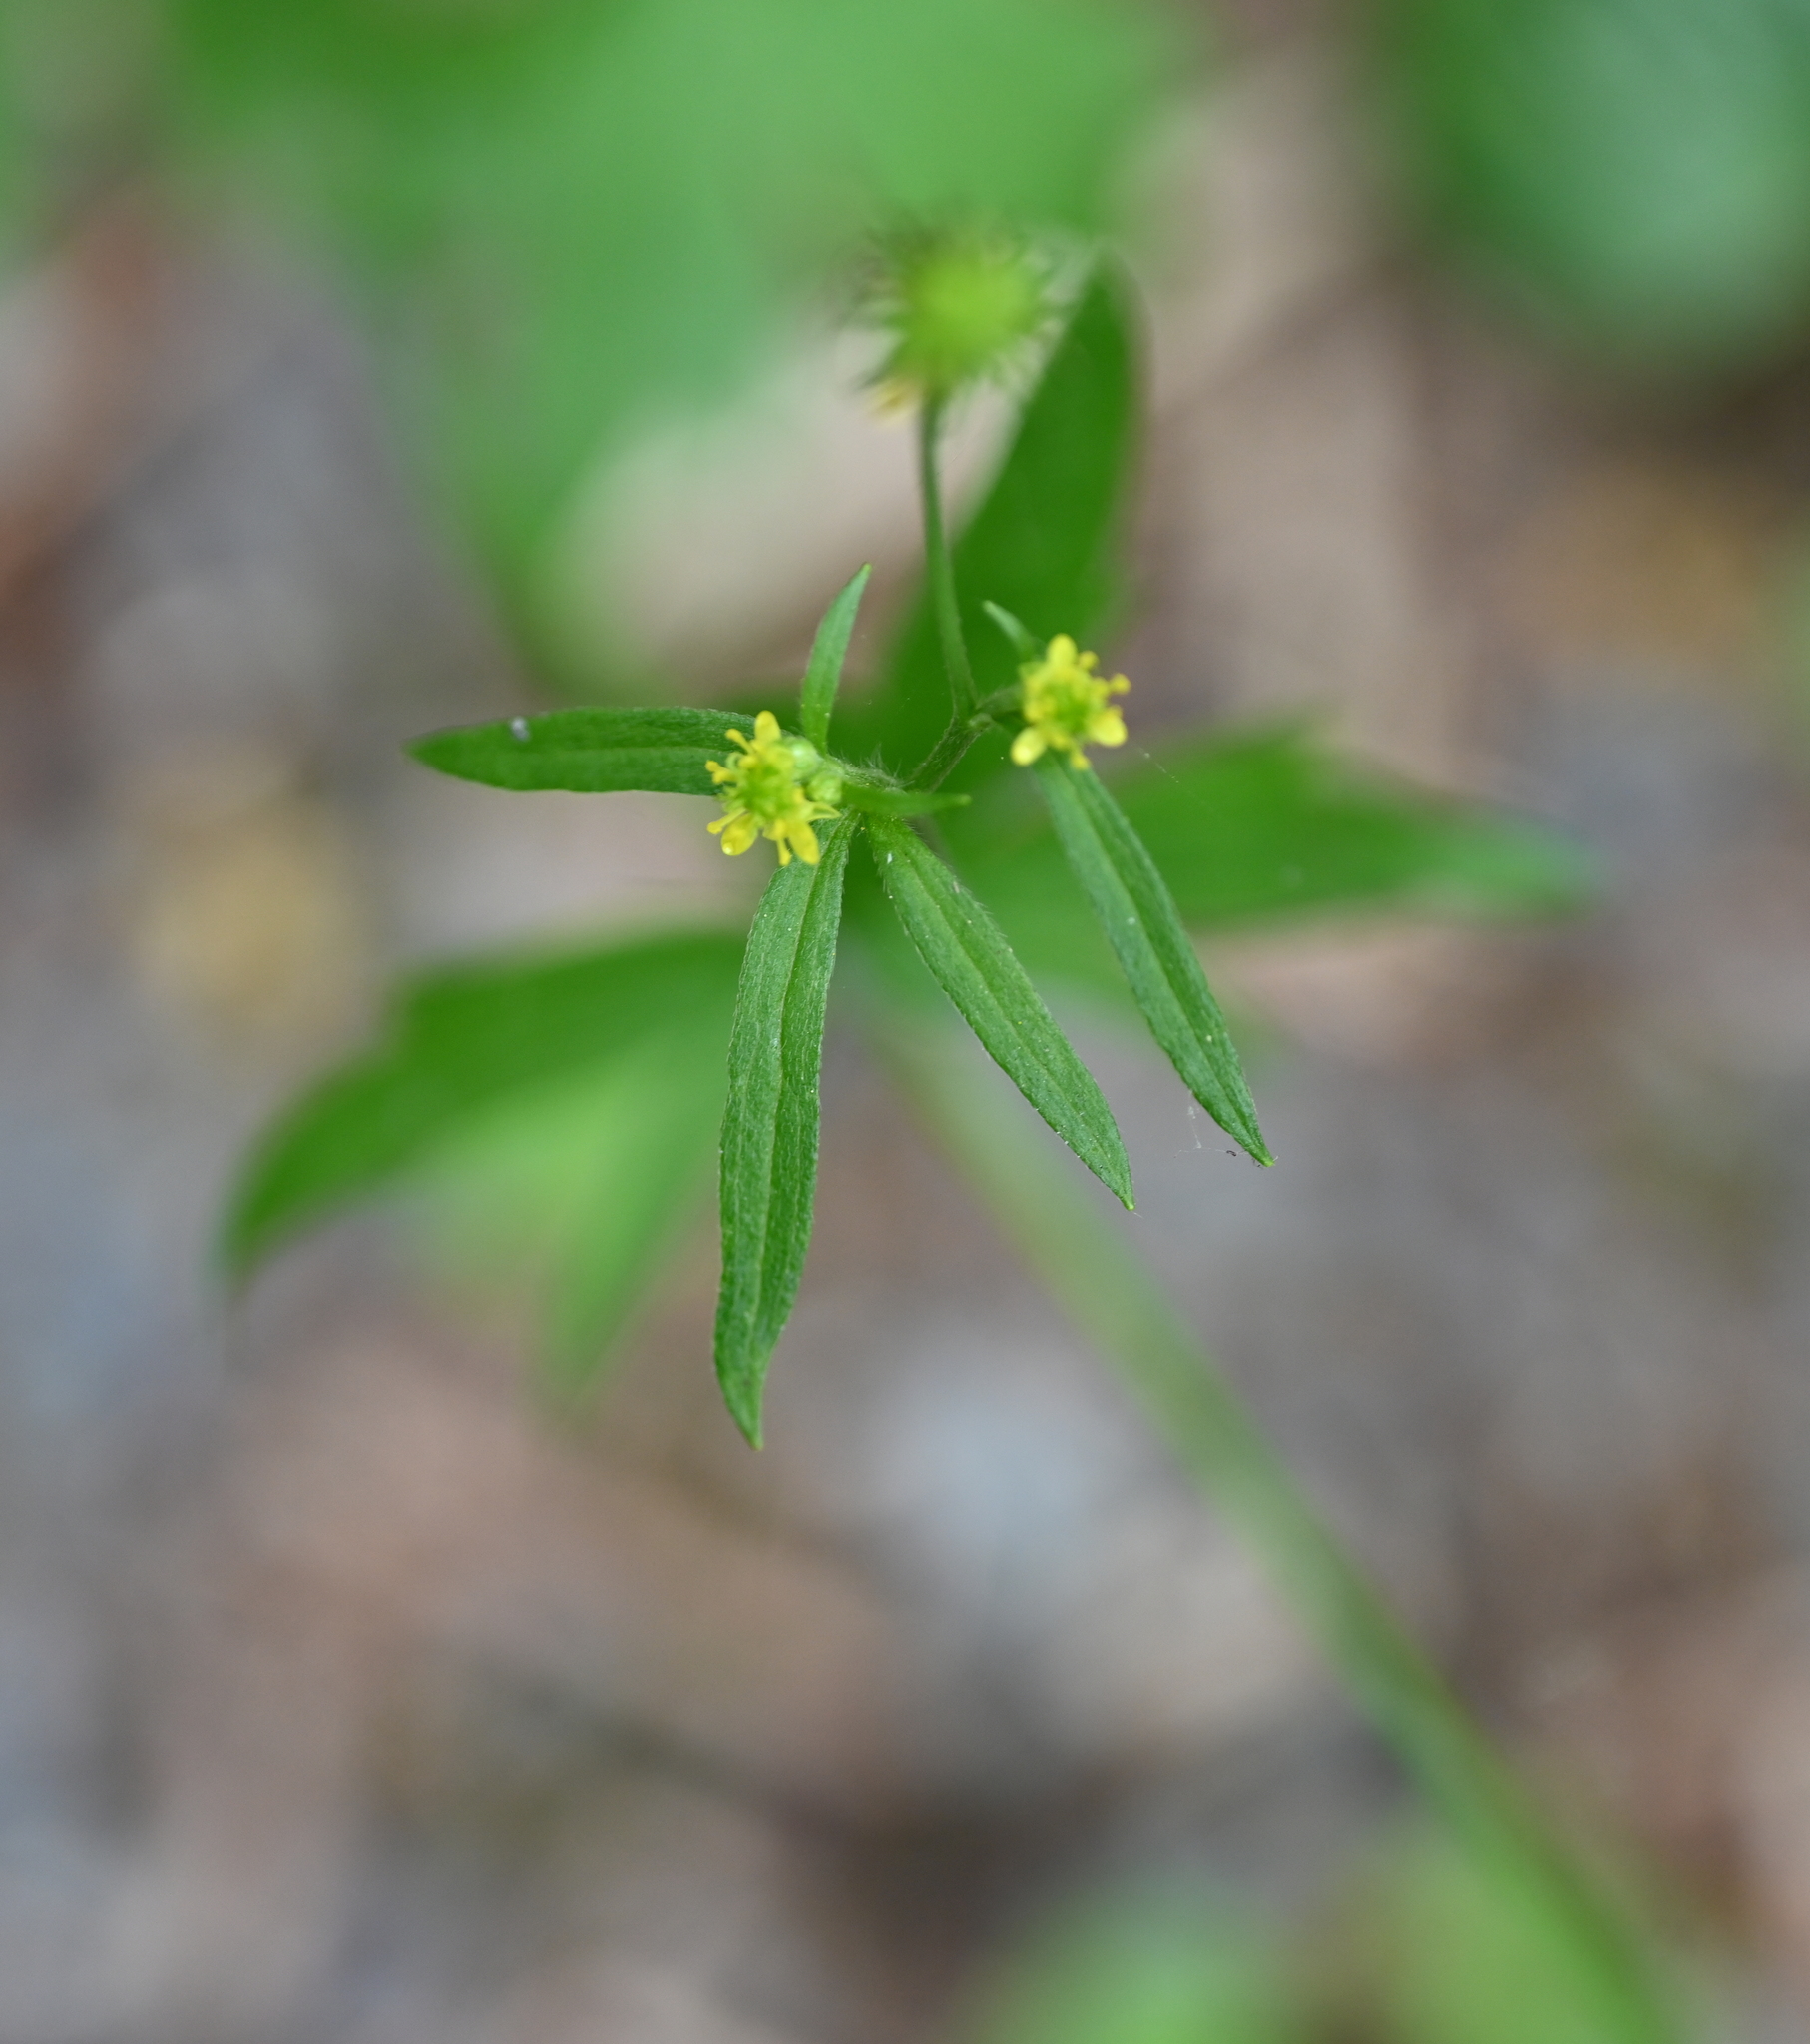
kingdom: Plantae
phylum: Tracheophyta
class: Magnoliopsida
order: Ranunculales
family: Ranunculaceae
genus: Ranunculus
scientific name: Ranunculus uncinatus
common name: Little buttercup
